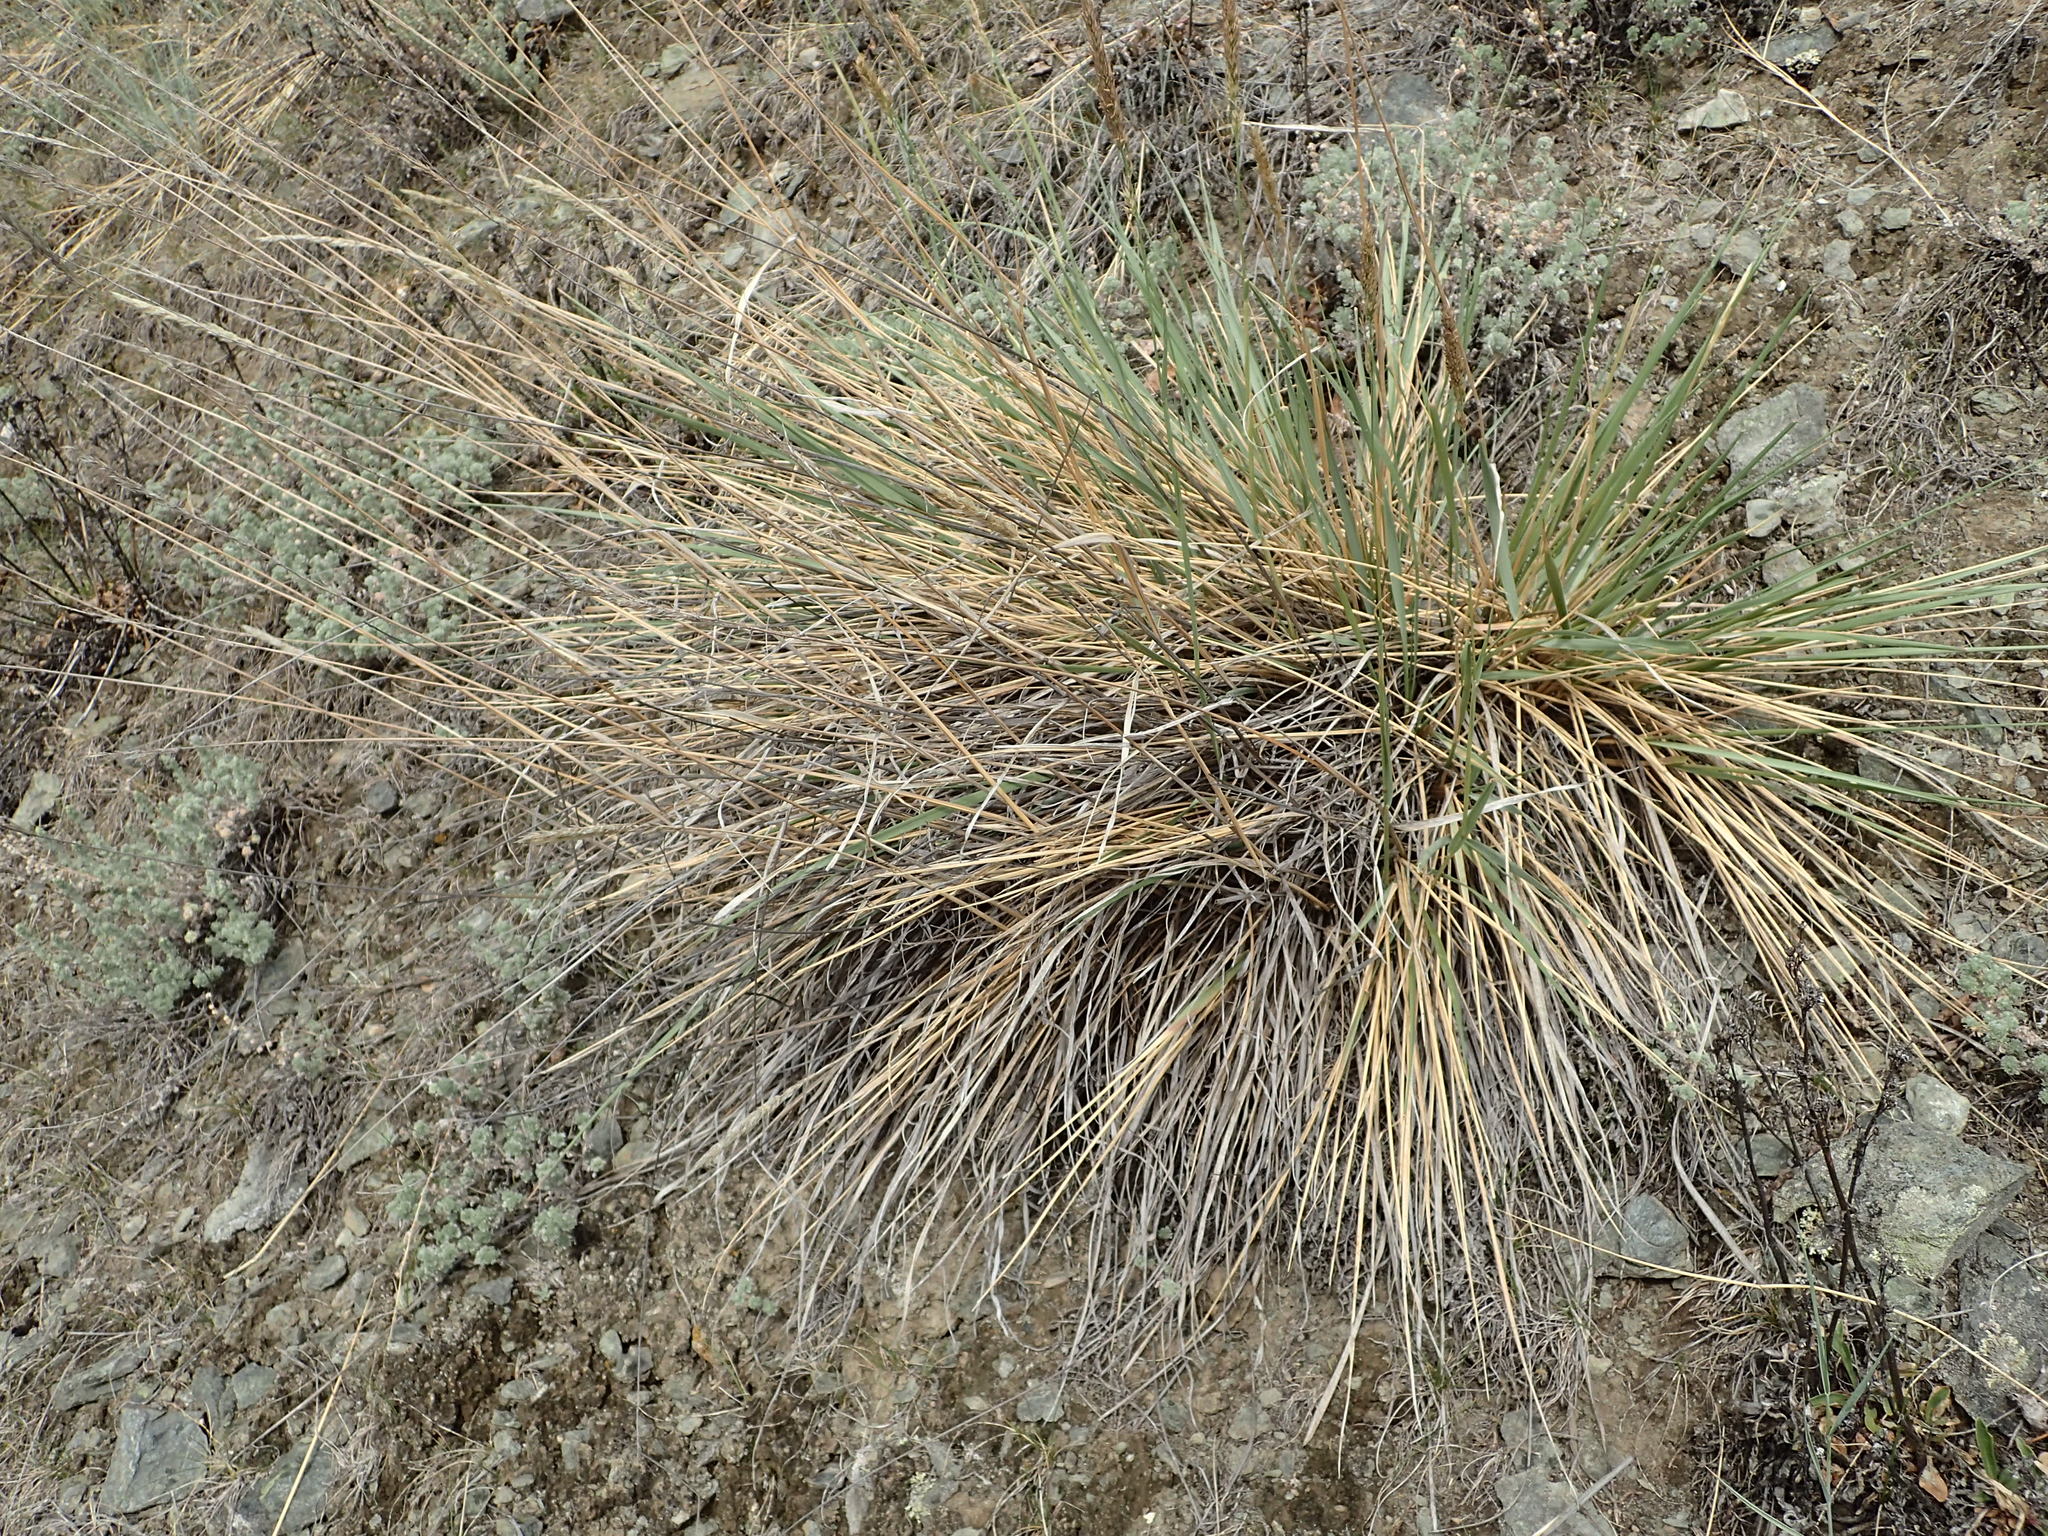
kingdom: Plantae
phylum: Tracheophyta
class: Liliopsida
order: Poales
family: Poaceae
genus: Calamagrostis
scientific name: Calamagrostis purpurascens
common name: Purple reedgrass
